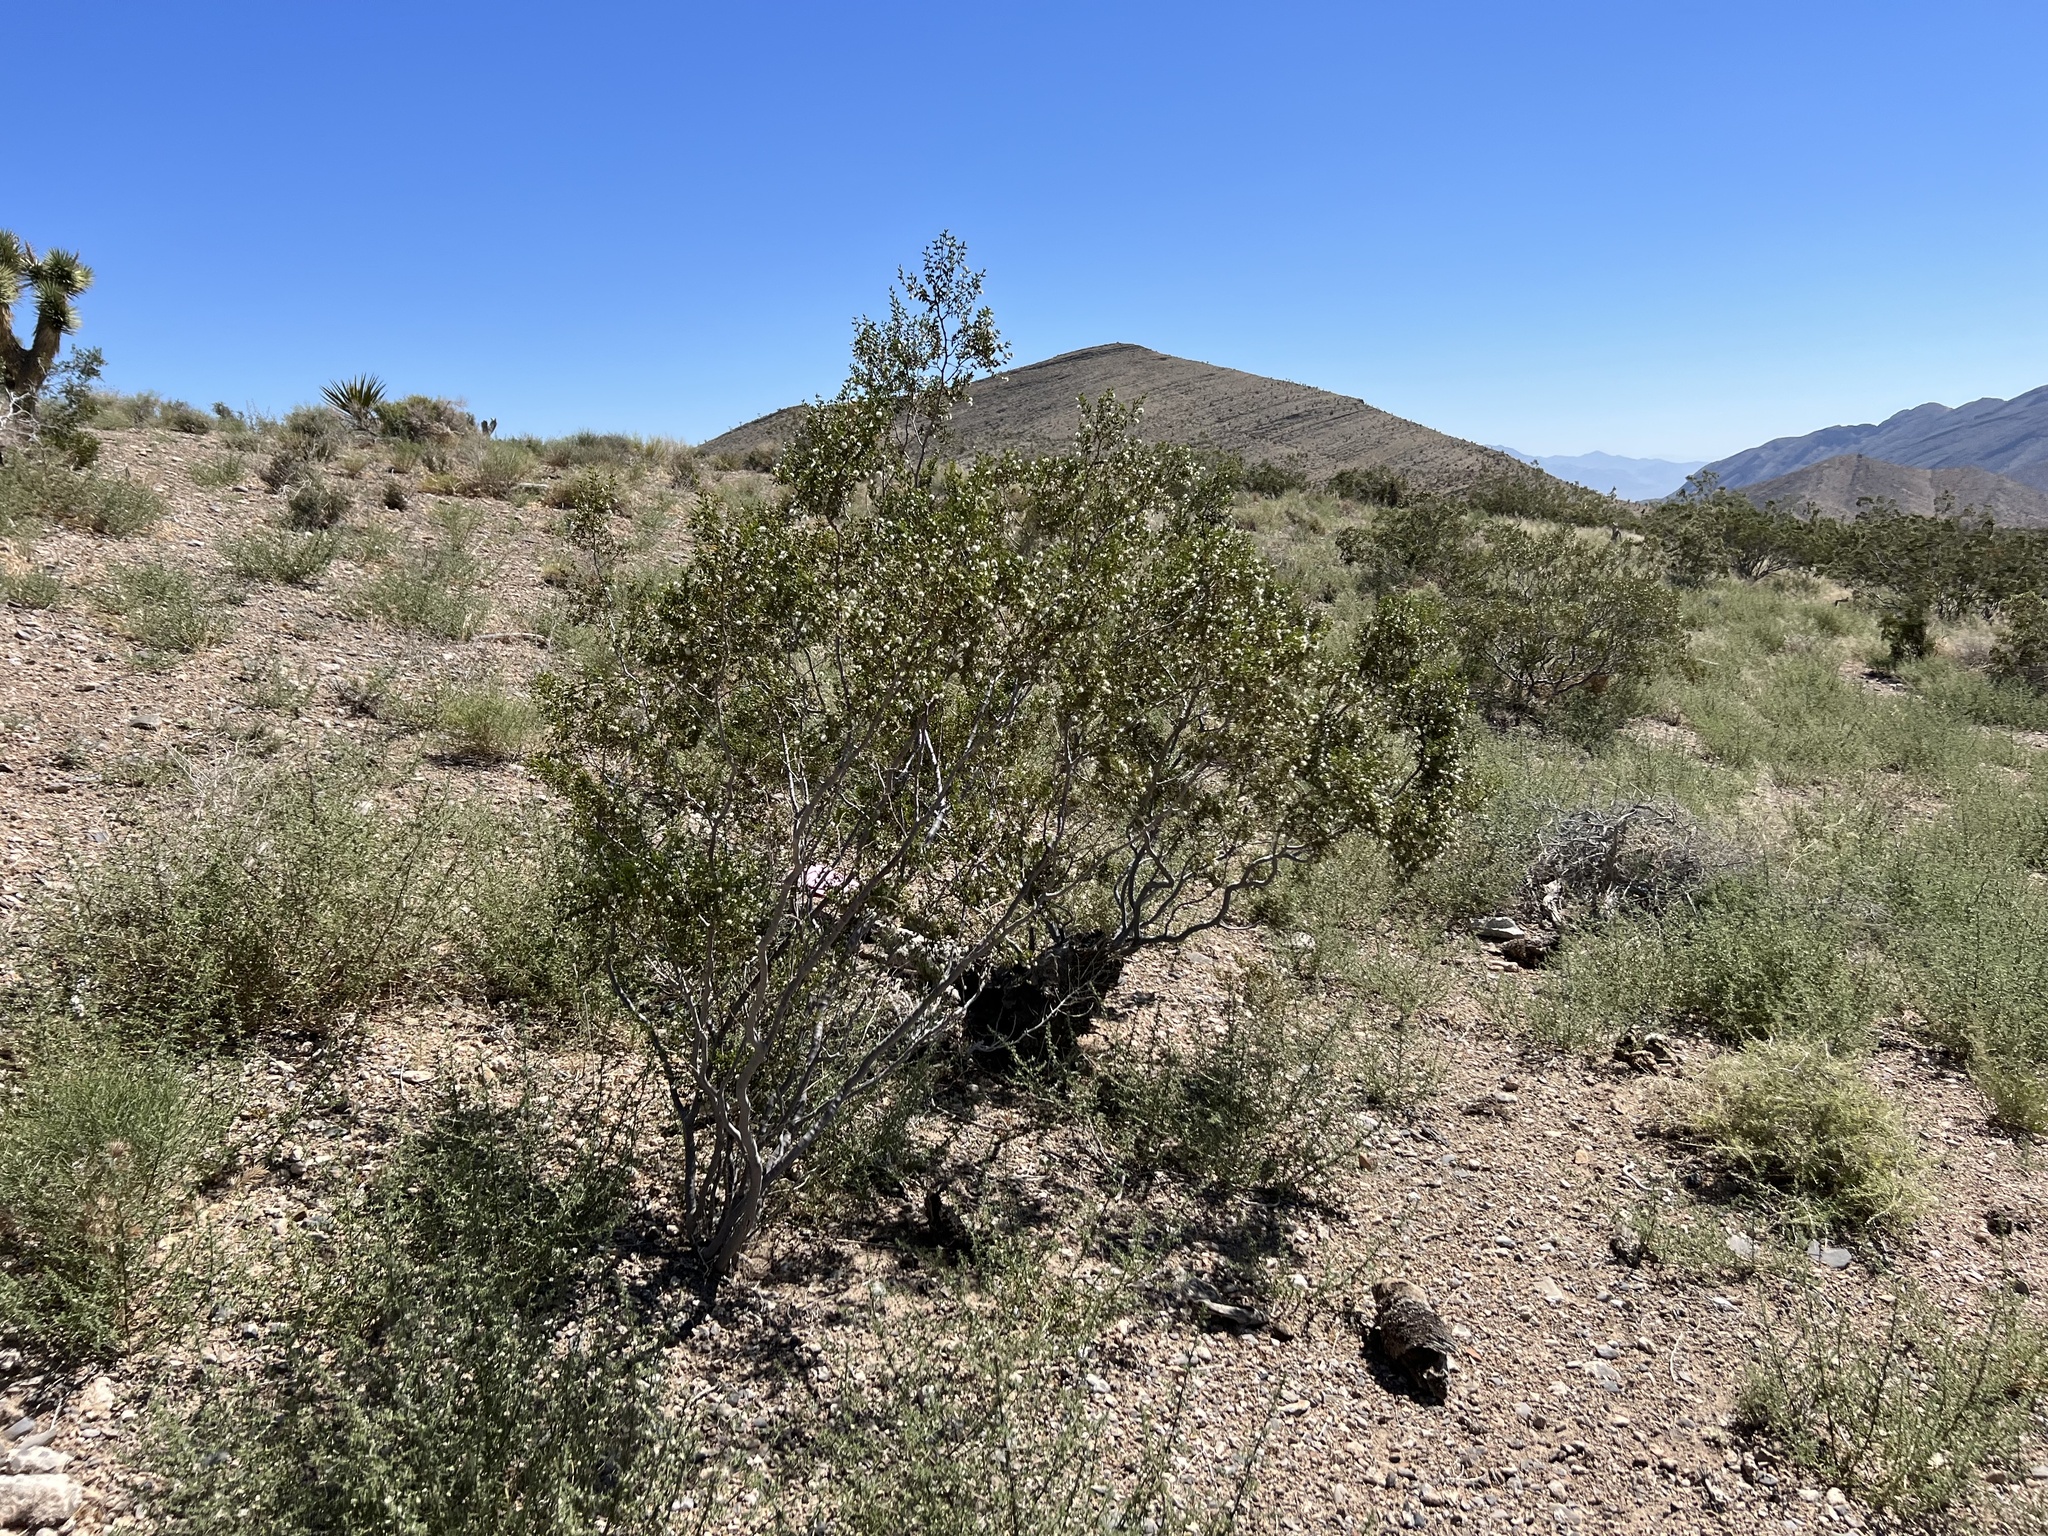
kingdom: Plantae
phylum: Tracheophyta
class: Magnoliopsida
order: Zygophyllales
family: Zygophyllaceae
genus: Larrea
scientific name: Larrea tridentata
